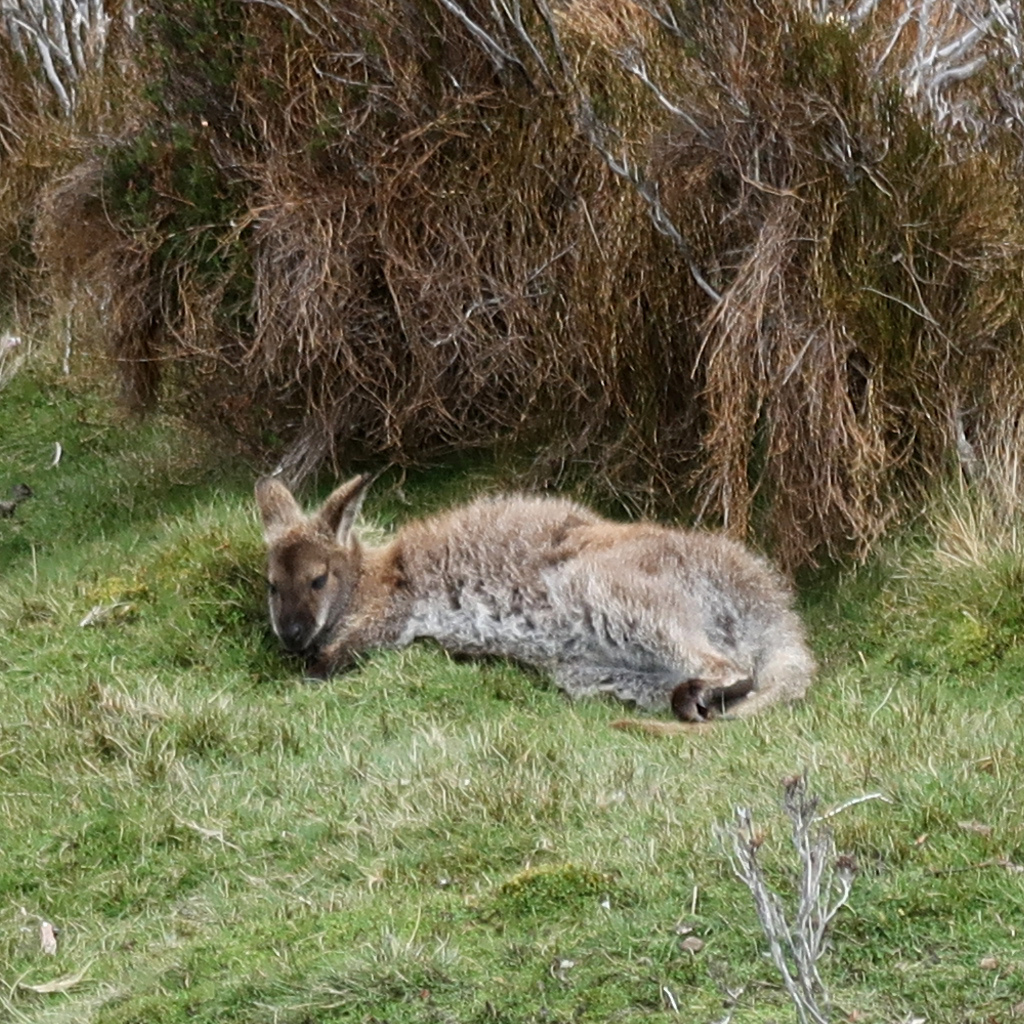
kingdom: Animalia
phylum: Chordata
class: Mammalia
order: Diprotodontia
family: Macropodidae
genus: Notamacropus
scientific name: Notamacropus rufogriseus
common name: Red-necked wallaby
